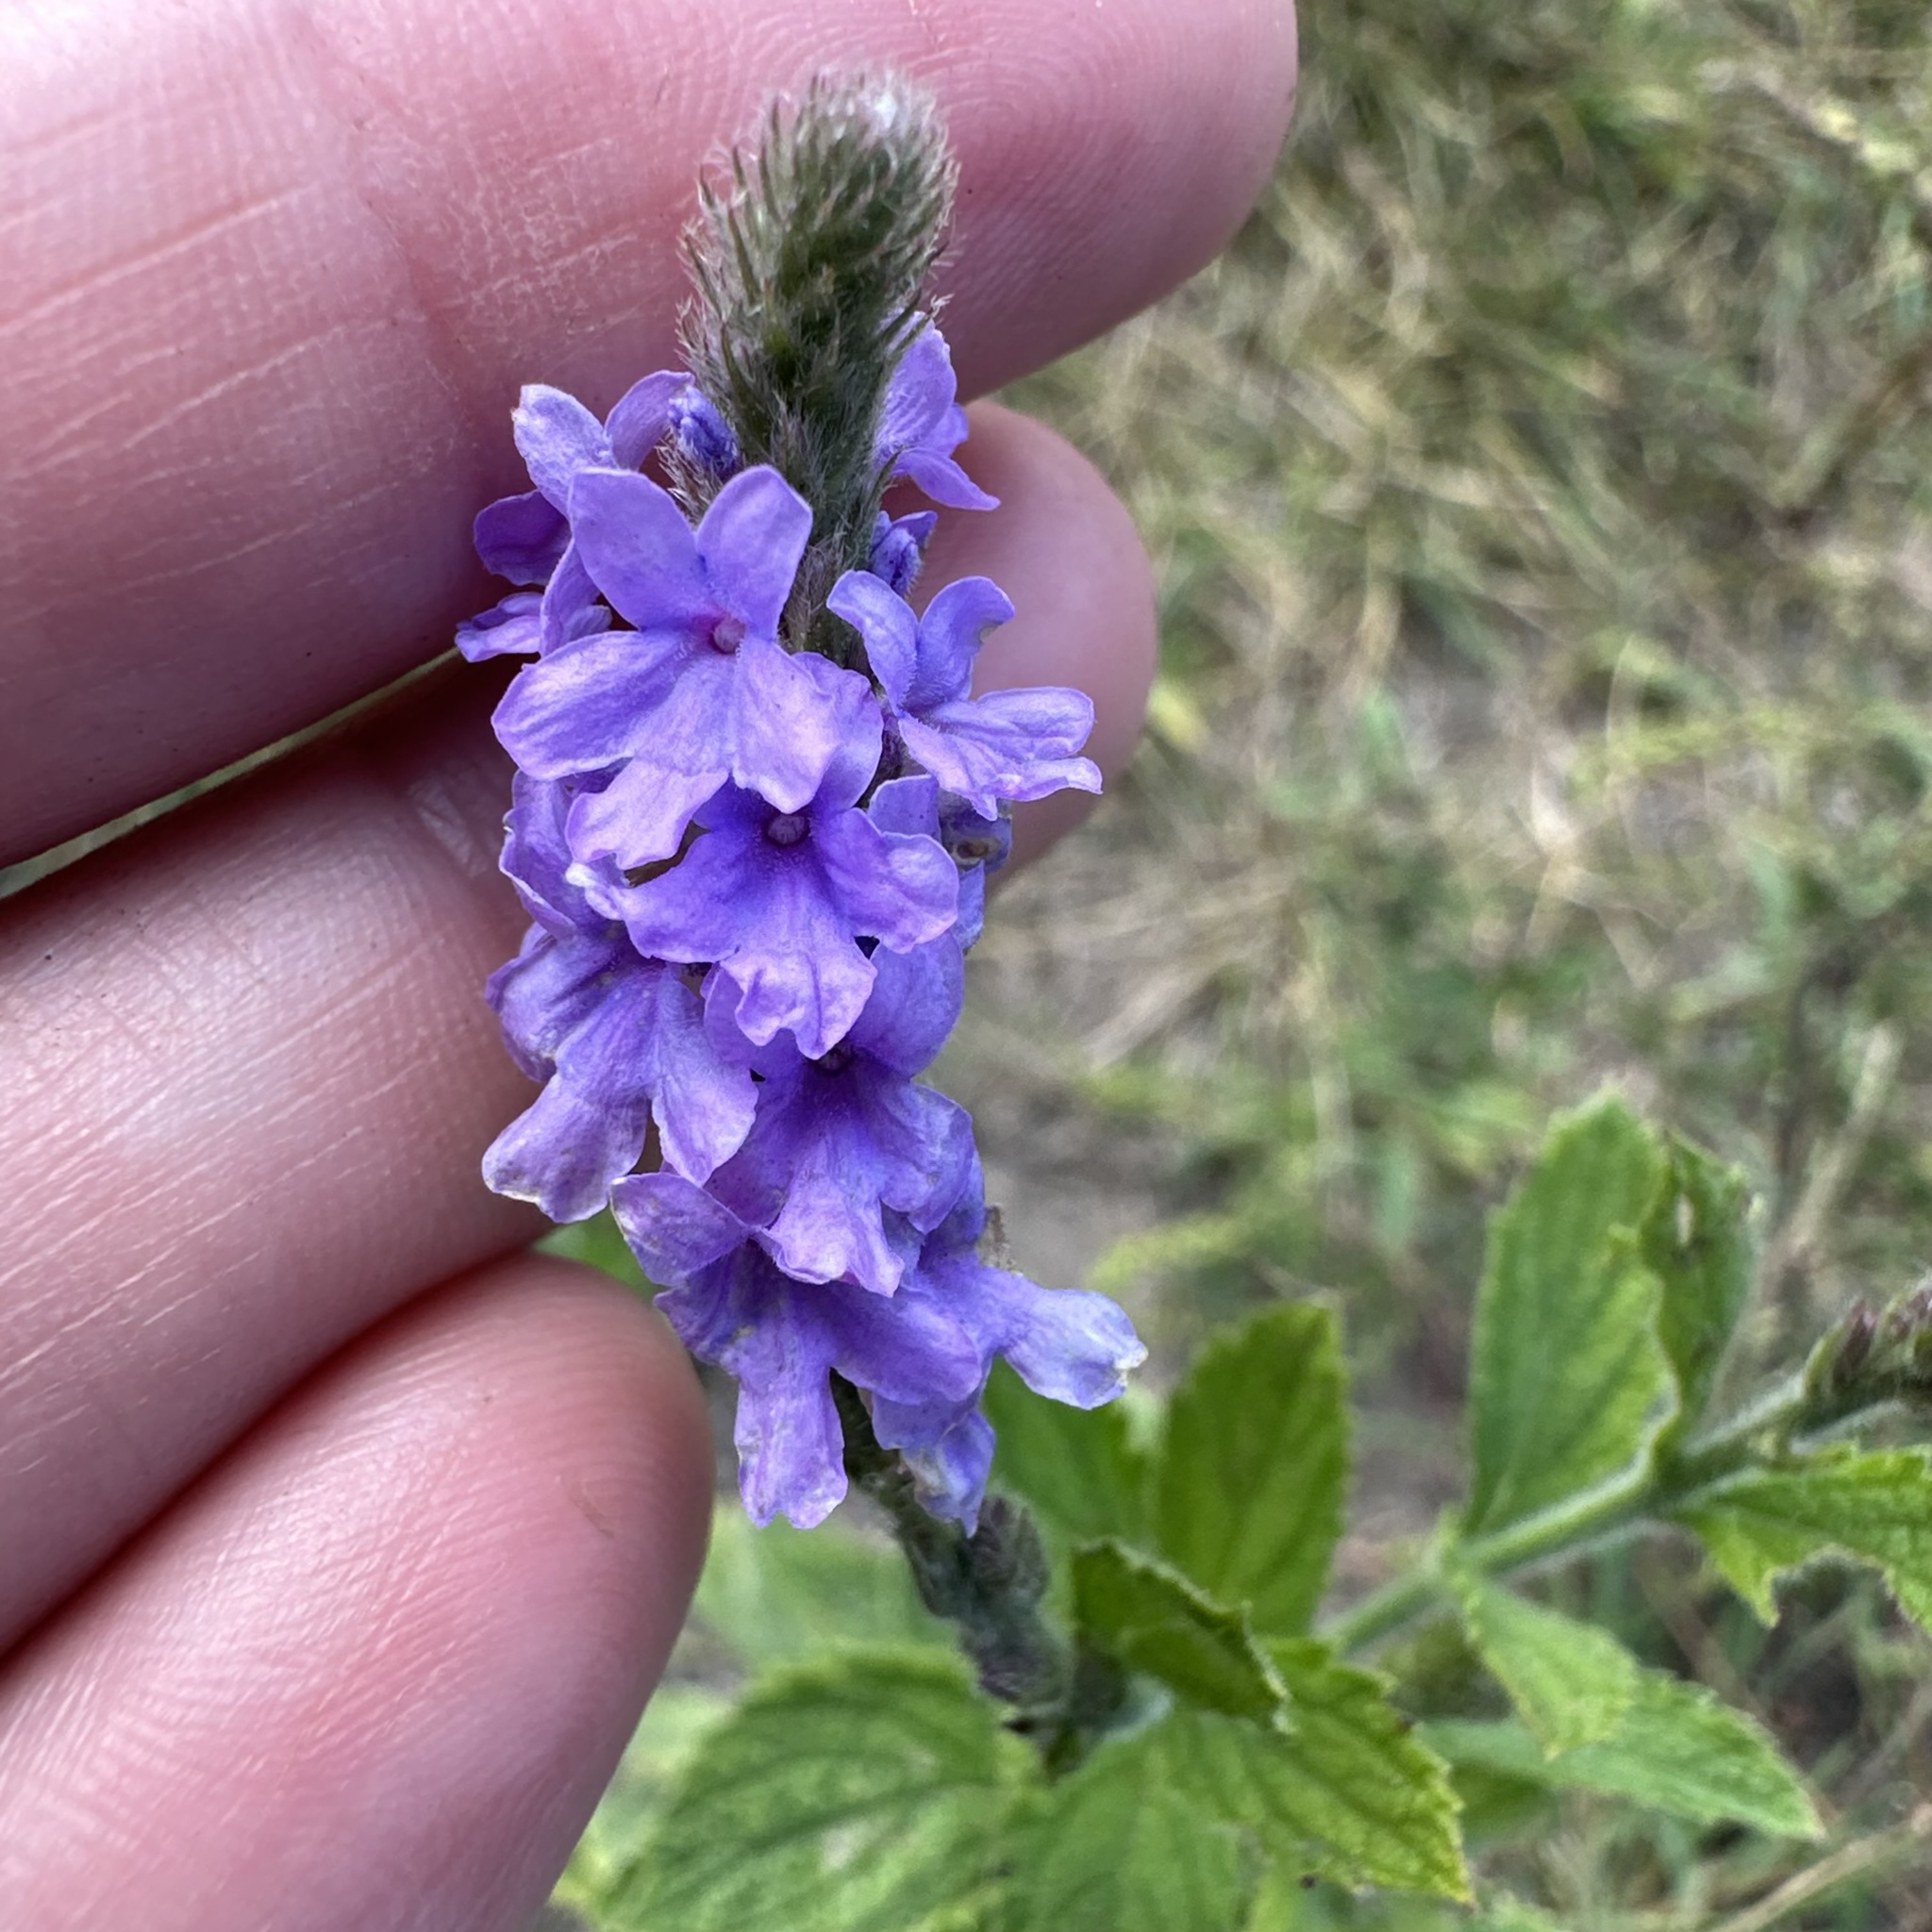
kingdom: Plantae
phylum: Tracheophyta
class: Magnoliopsida
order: Lamiales
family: Verbenaceae
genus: Verbena
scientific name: Verbena stricta
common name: Hoary vervain
